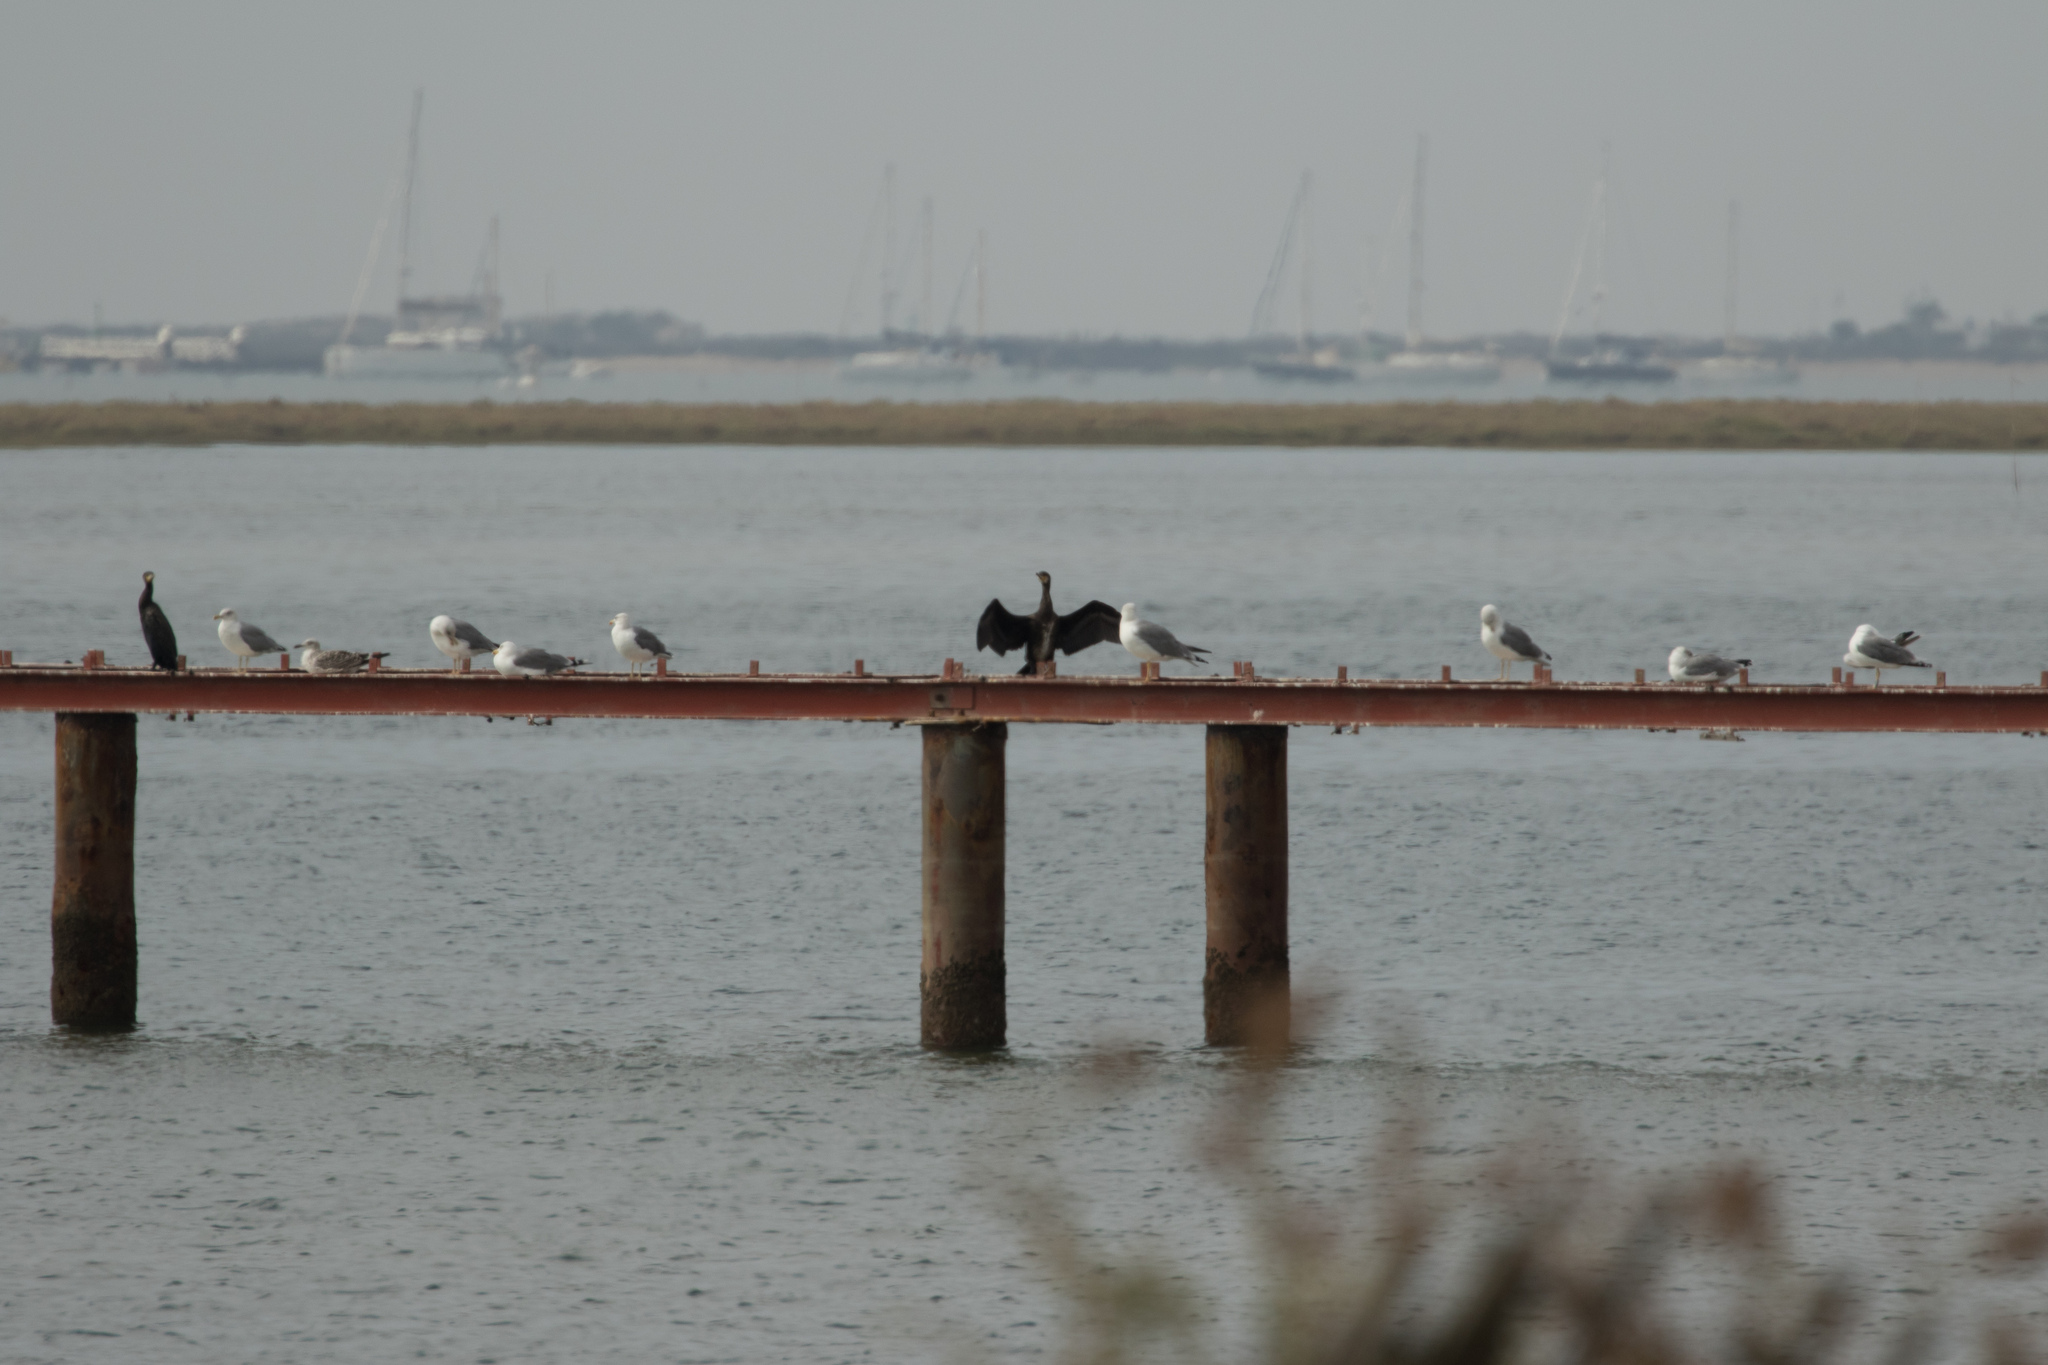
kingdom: Animalia
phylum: Chordata
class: Aves
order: Charadriiformes
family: Laridae
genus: Larus
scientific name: Larus michahellis
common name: Yellow-legged gull
